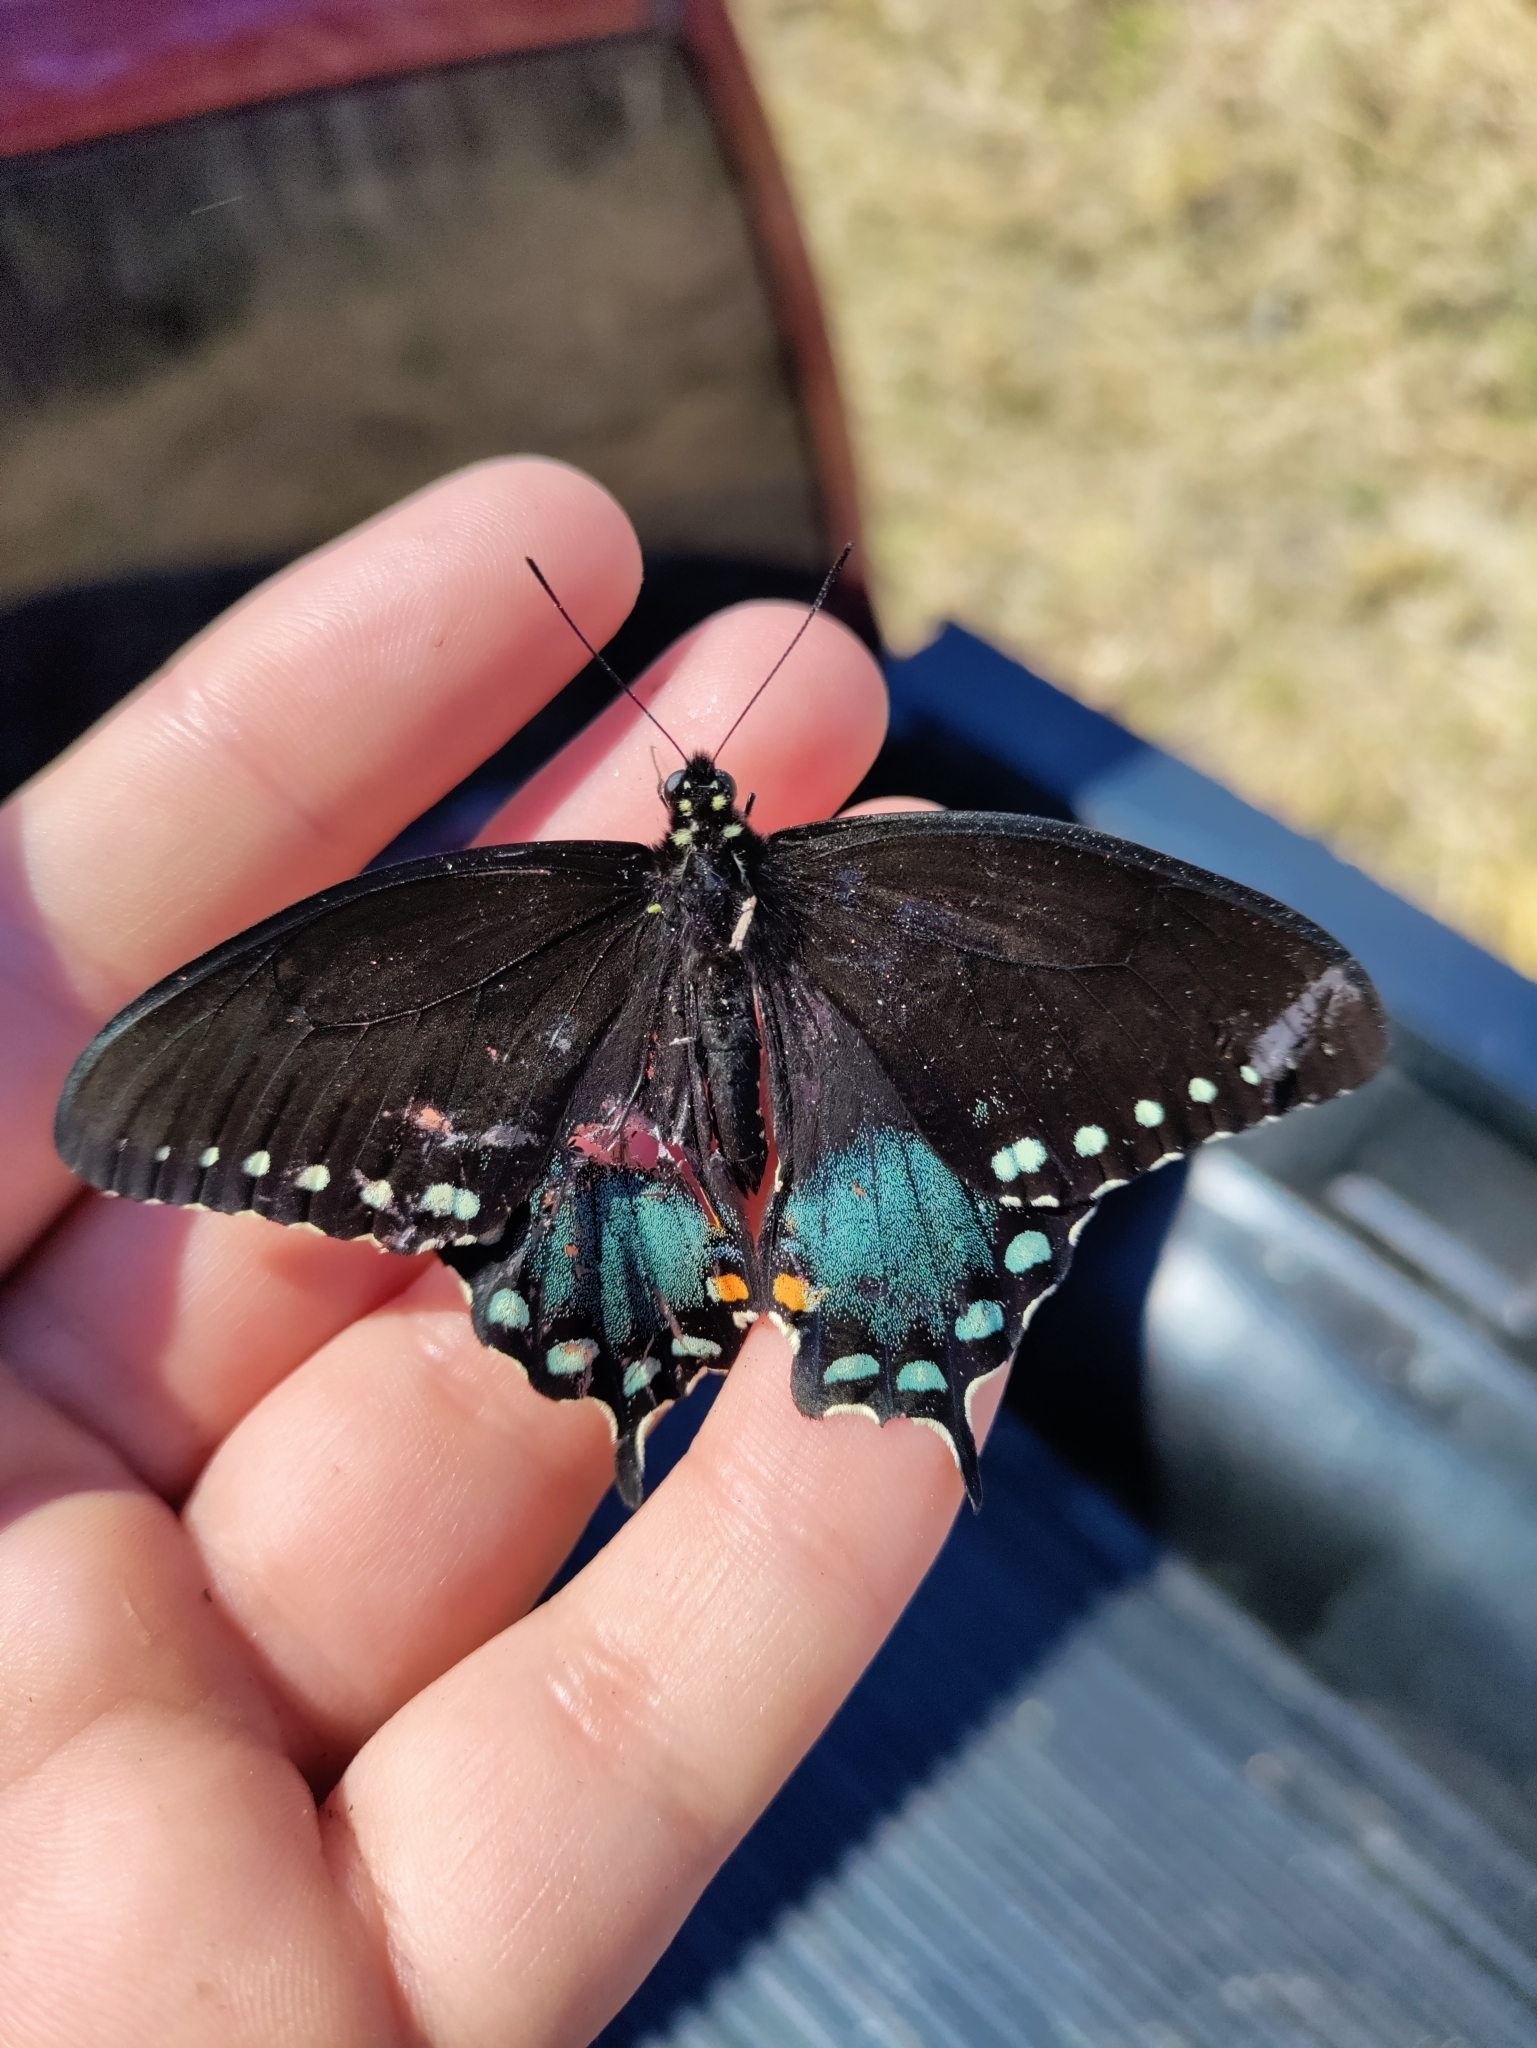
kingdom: Animalia
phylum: Arthropoda
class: Insecta
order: Lepidoptera
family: Papilionidae
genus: Papilio
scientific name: Papilio troilus
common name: Spicebush swallowtail
